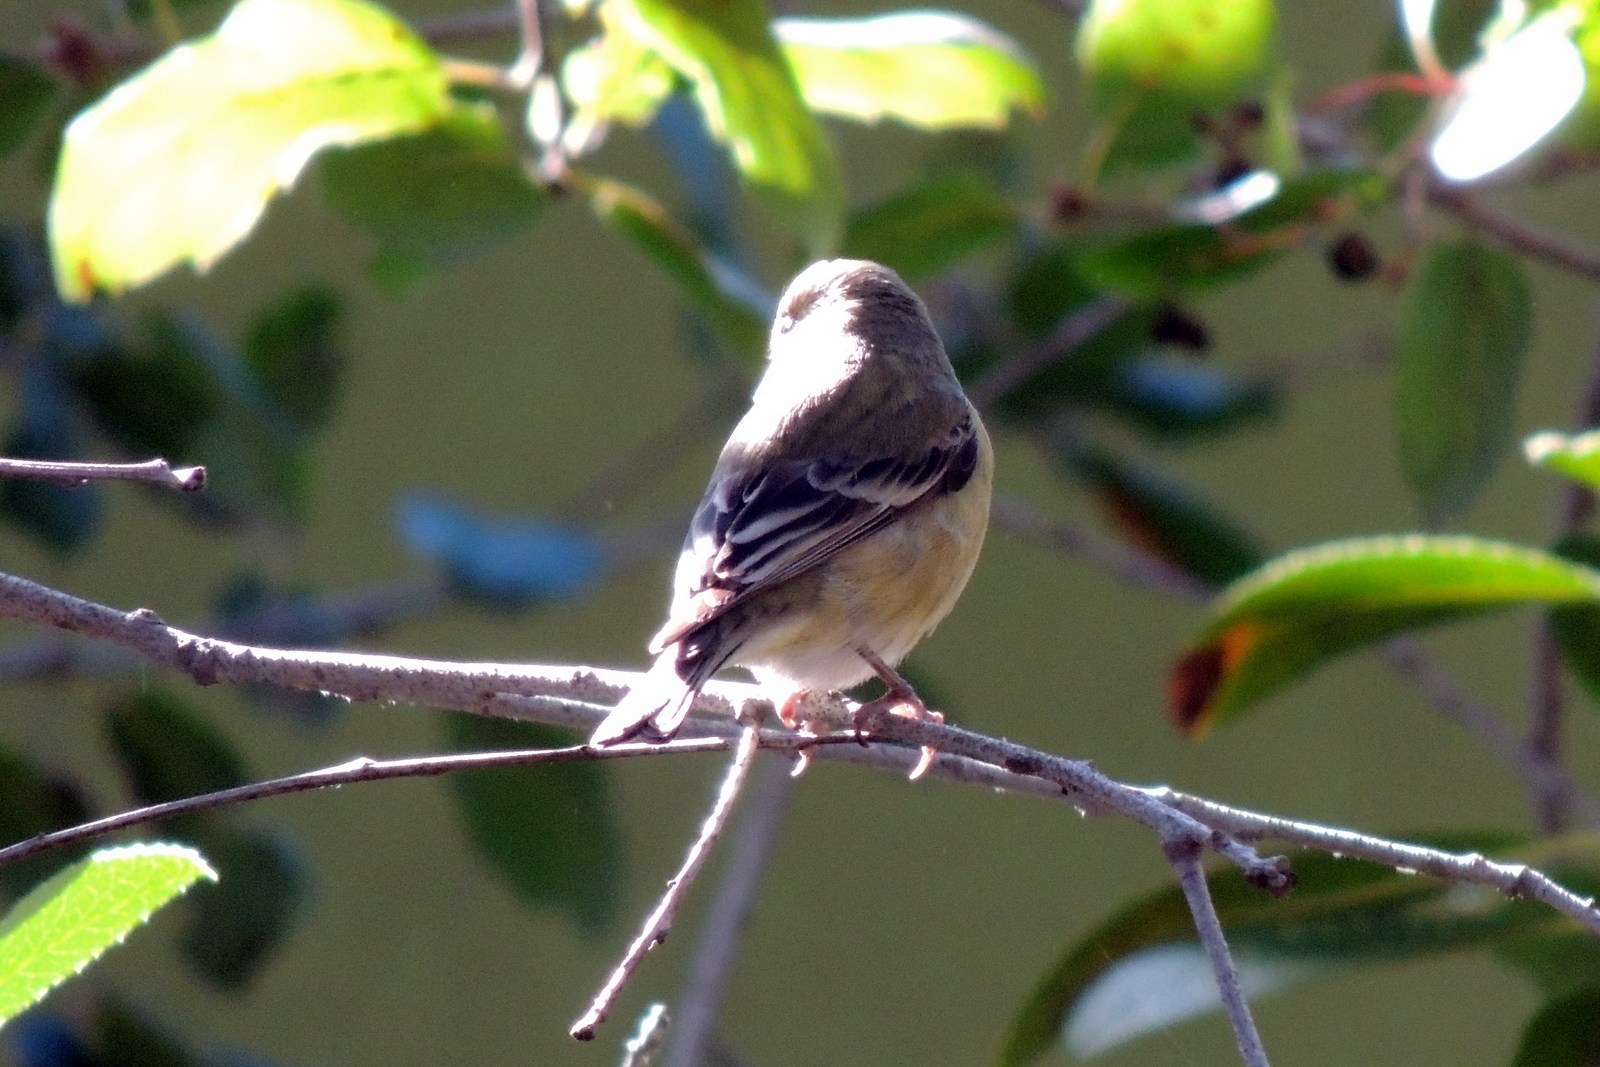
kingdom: Animalia
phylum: Chordata
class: Aves
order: Passeriformes
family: Fringillidae
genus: Spinus
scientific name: Spinus psaltria
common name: Lesser goldfinch
